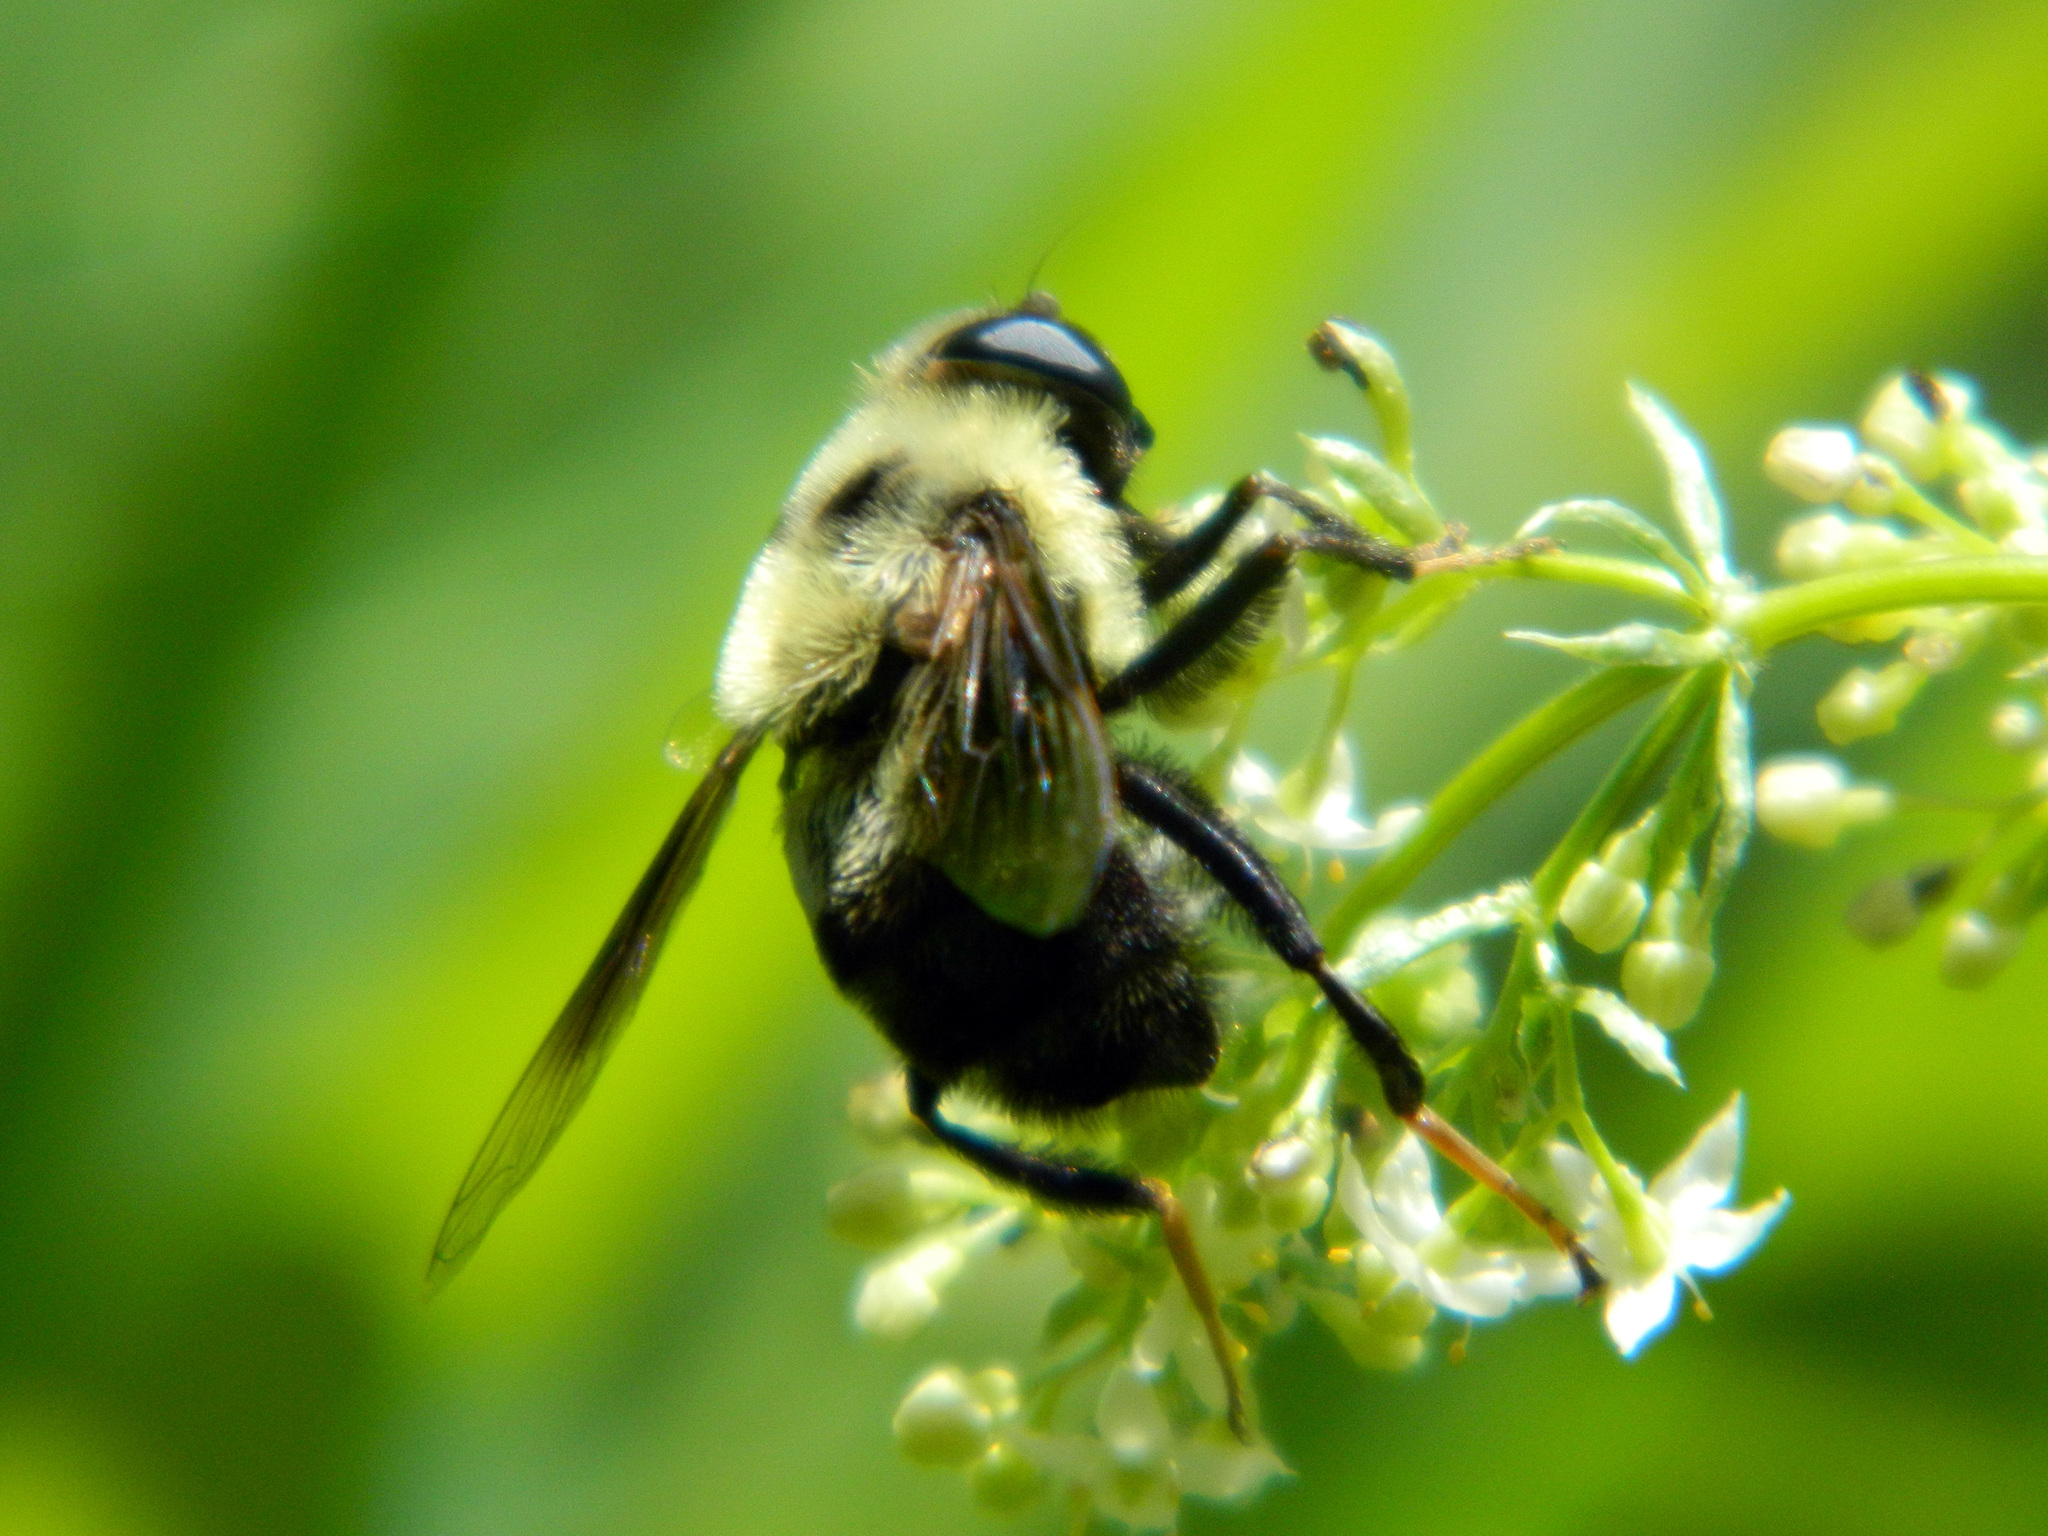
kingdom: Animalia
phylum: Arthropoda
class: Insecta
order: Diptera
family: Syrphidae
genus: Eristalis
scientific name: Eristalis flavipes
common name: Orange-legged drone fly
